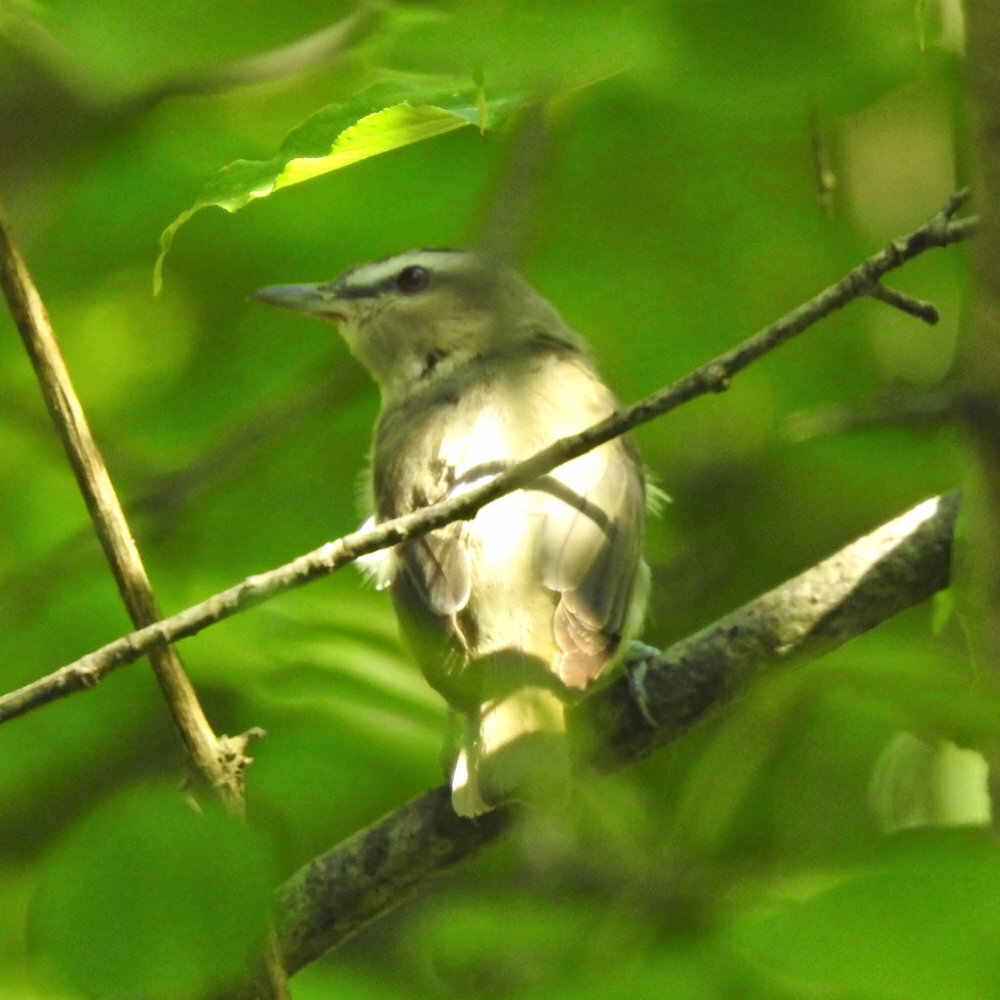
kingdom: Animalia
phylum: Chordata
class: Aves
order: Passeriformes
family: Vireonidae
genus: Vireo
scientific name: Vireo olivaceus
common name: Red-eyed vireo
